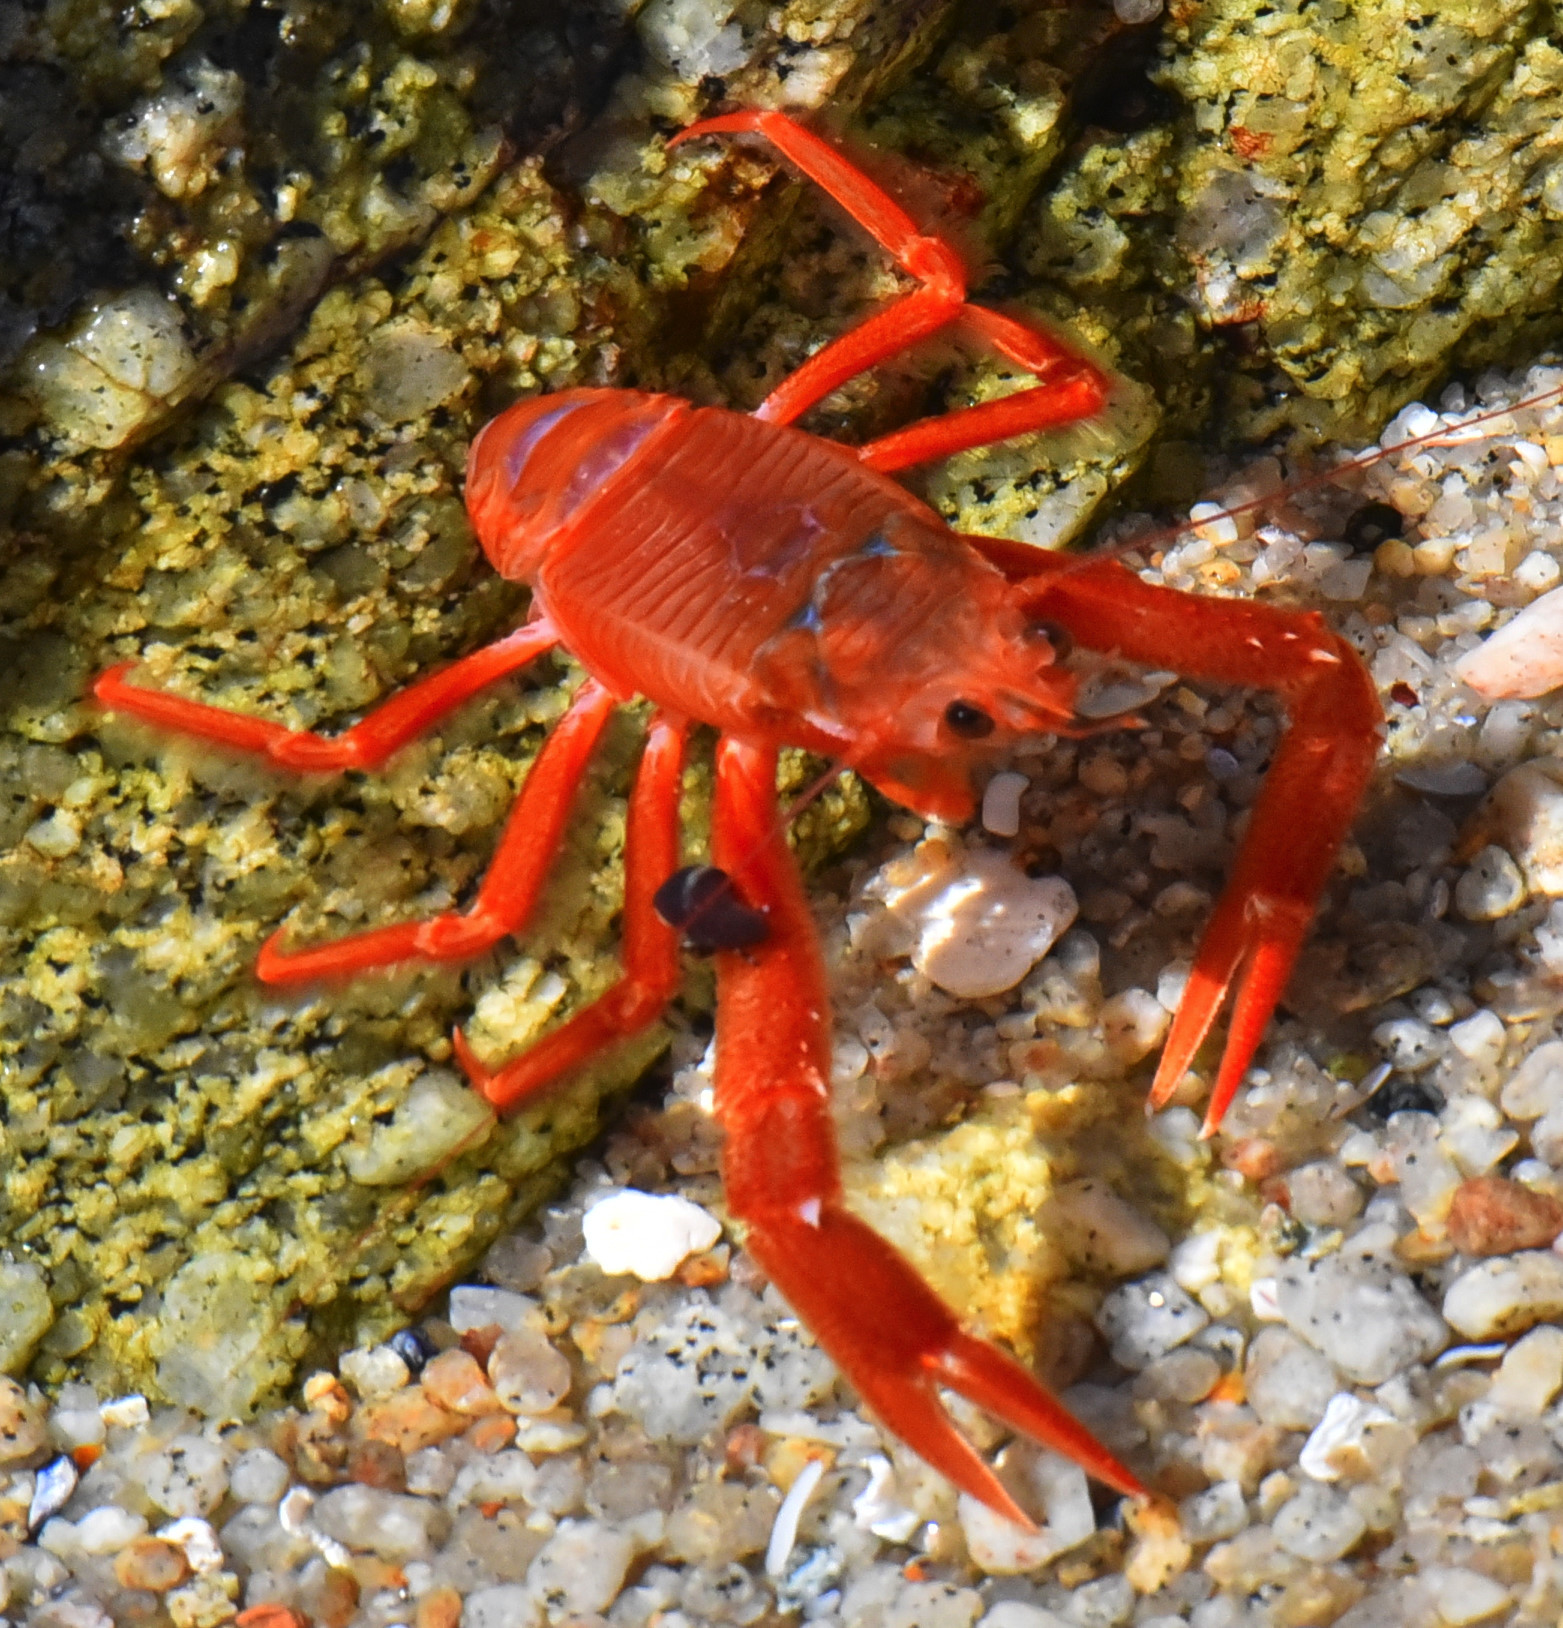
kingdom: Animalia
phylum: Arthropoda
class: Malacostraca
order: Decapoda
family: Munididae
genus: Grimothea
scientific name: Grimothea planipes
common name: Pelagic red crab
